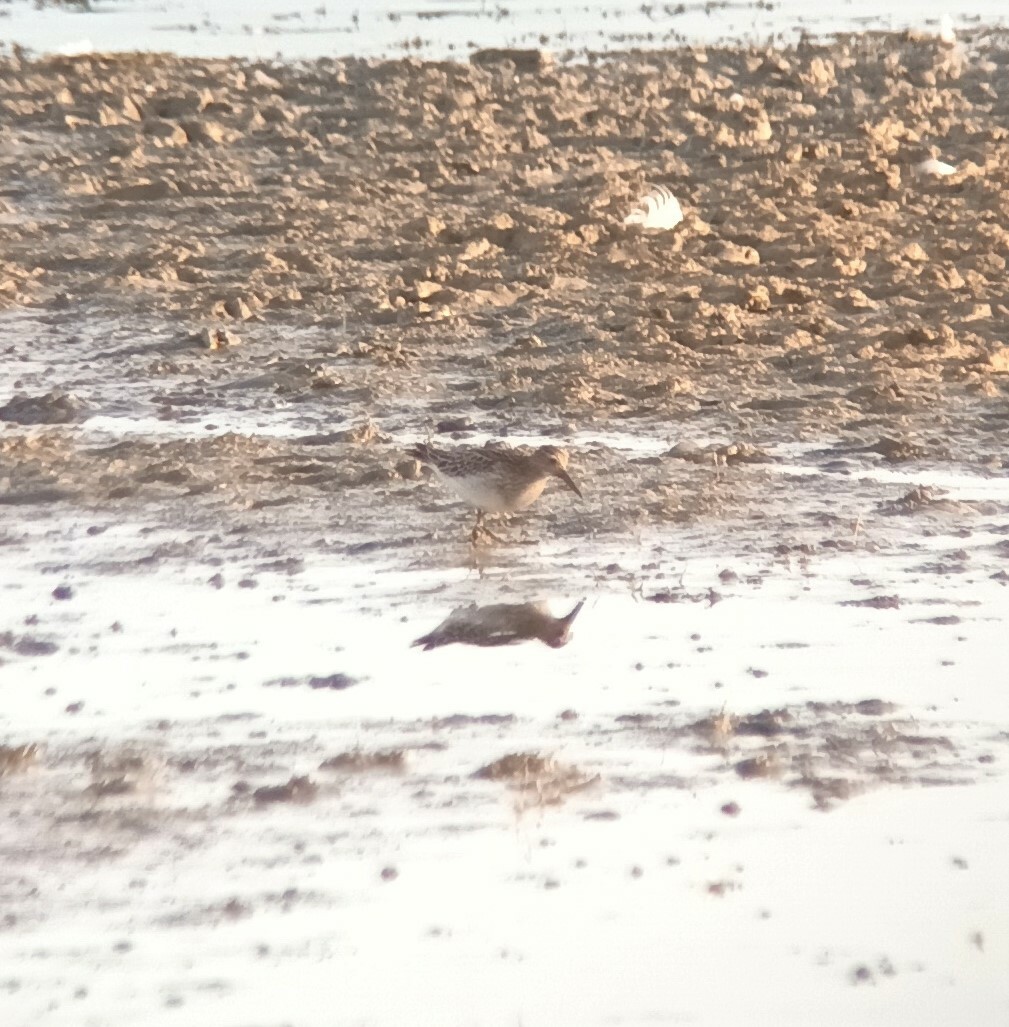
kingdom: Animalia
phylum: Chordata
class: Aves
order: Charadriiformes
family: Scolopacidae
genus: Calidris
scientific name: Calidris melanotos
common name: Pectoral sandpiper
